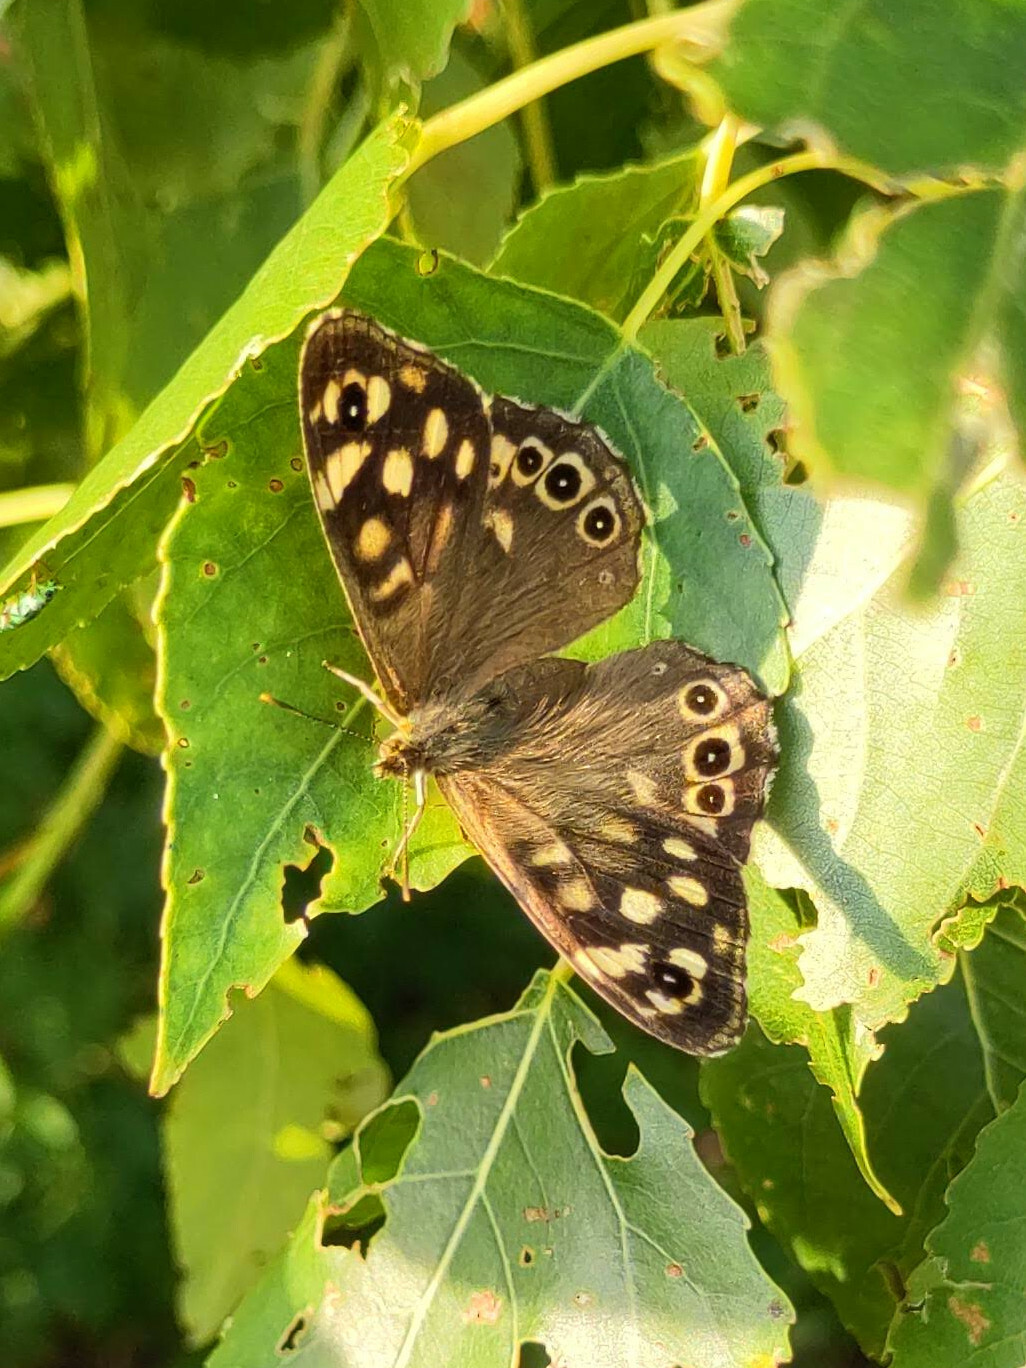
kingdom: Animalia
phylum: Arthropoda
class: Insecta
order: Lepidoptera
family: Nymphalidae
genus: Pararge
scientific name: Pararge aegeria
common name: Speckled wood
